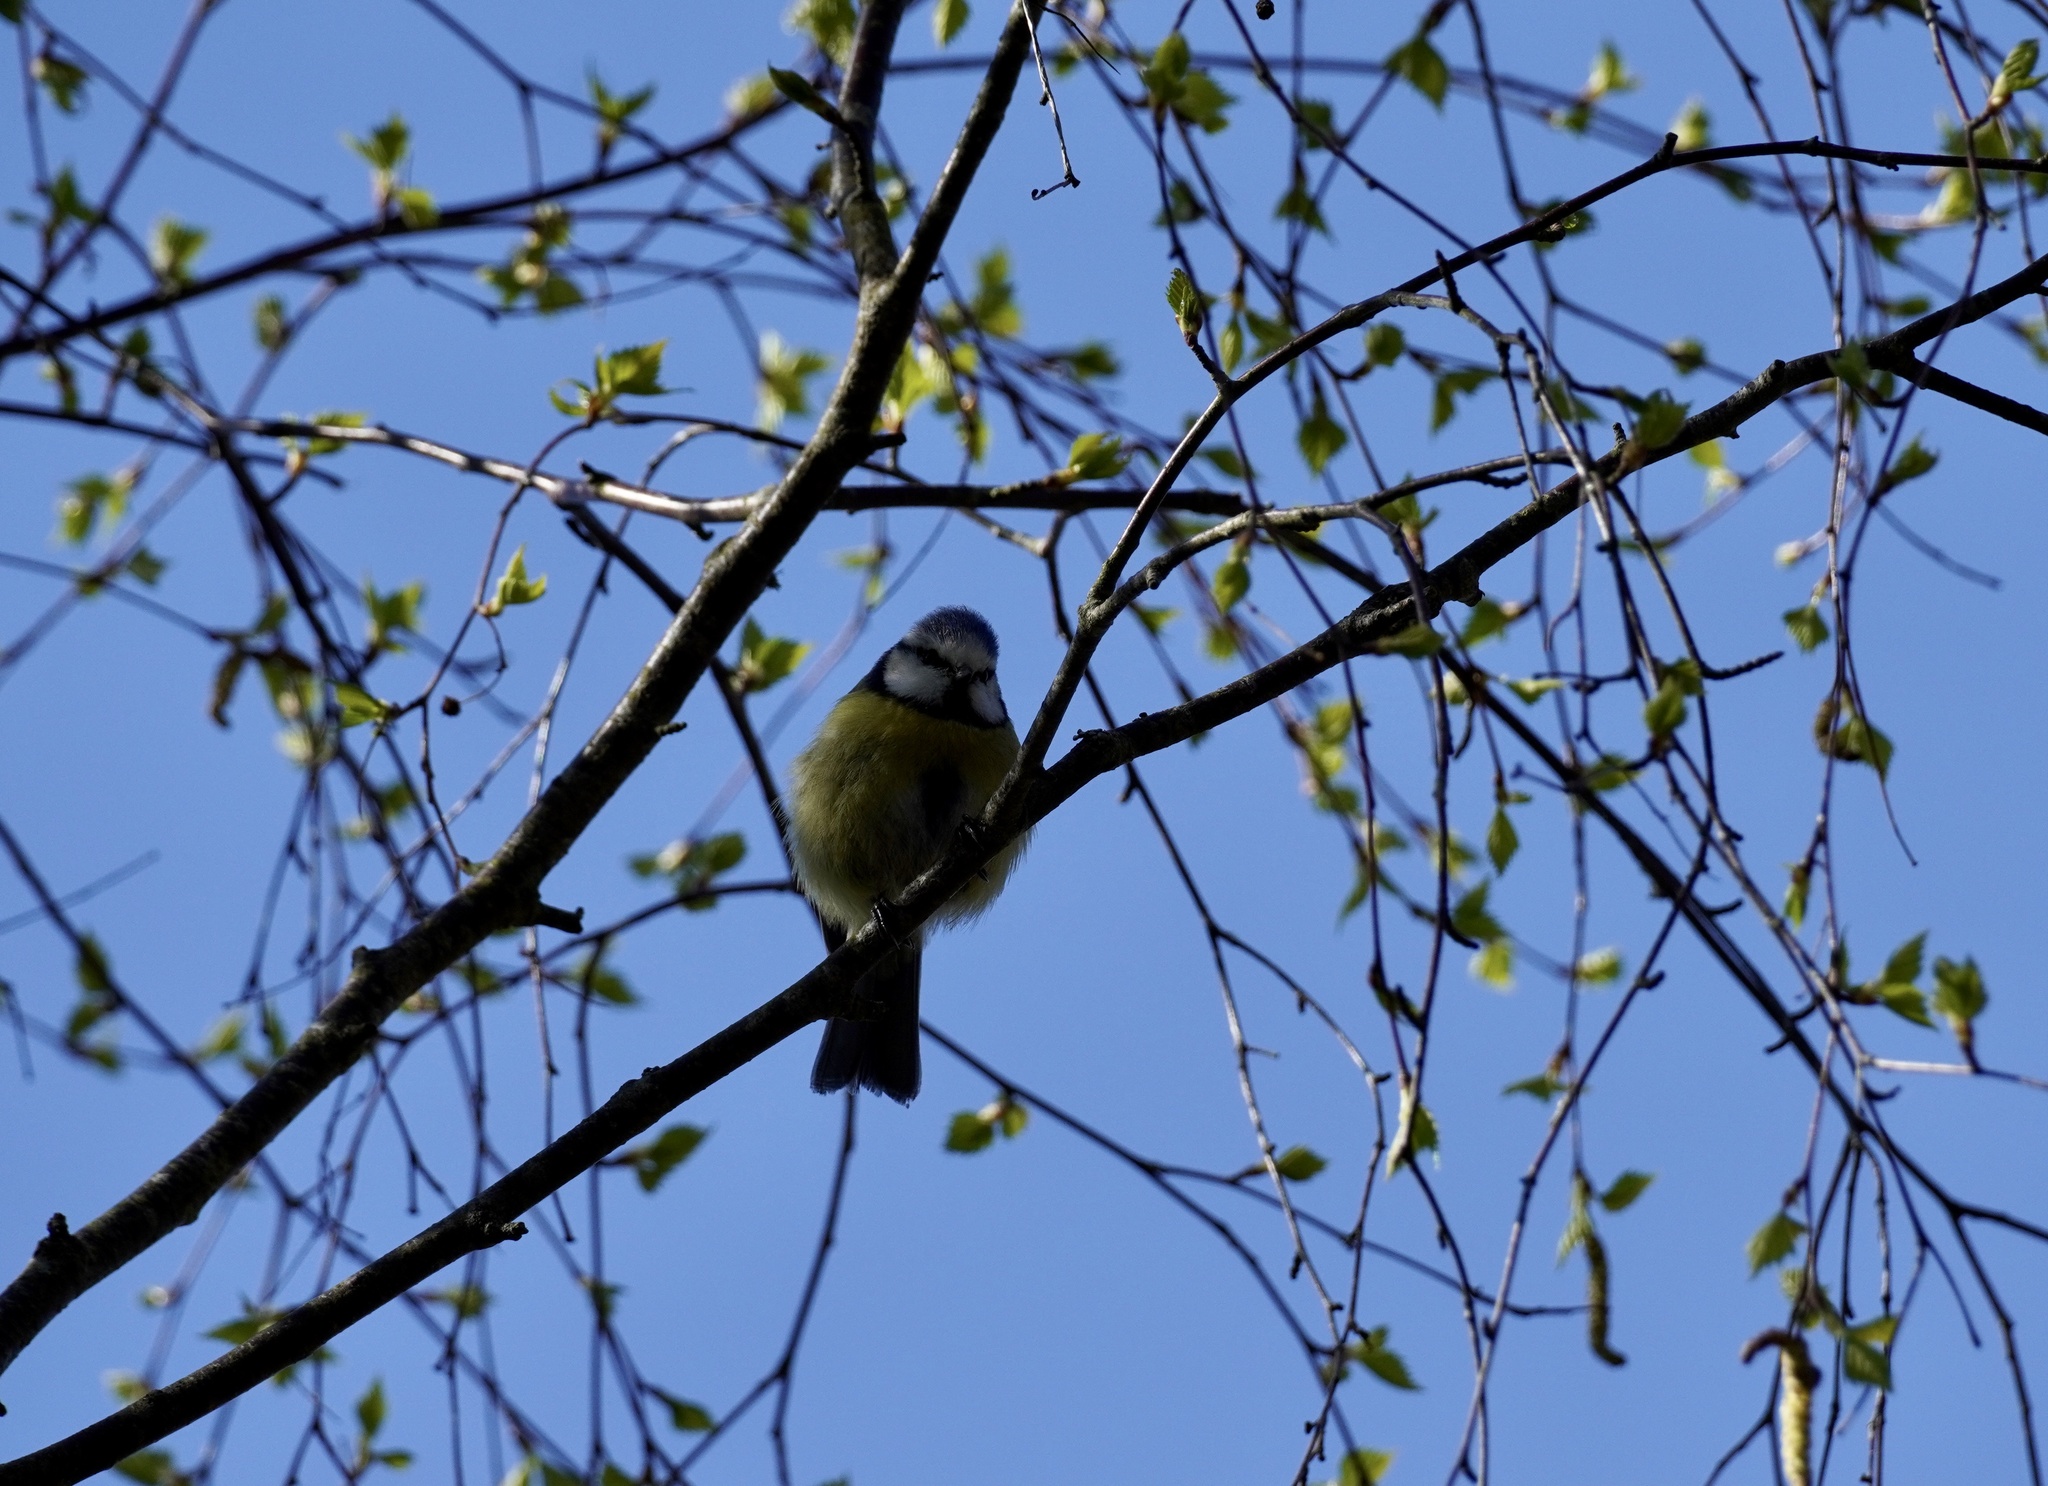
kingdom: Animalia
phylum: Chordata
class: Aves
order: Passeriformes
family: Paridae
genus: Cyanistes
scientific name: Cyanistes caeruleus
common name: Eurasian blue tit
